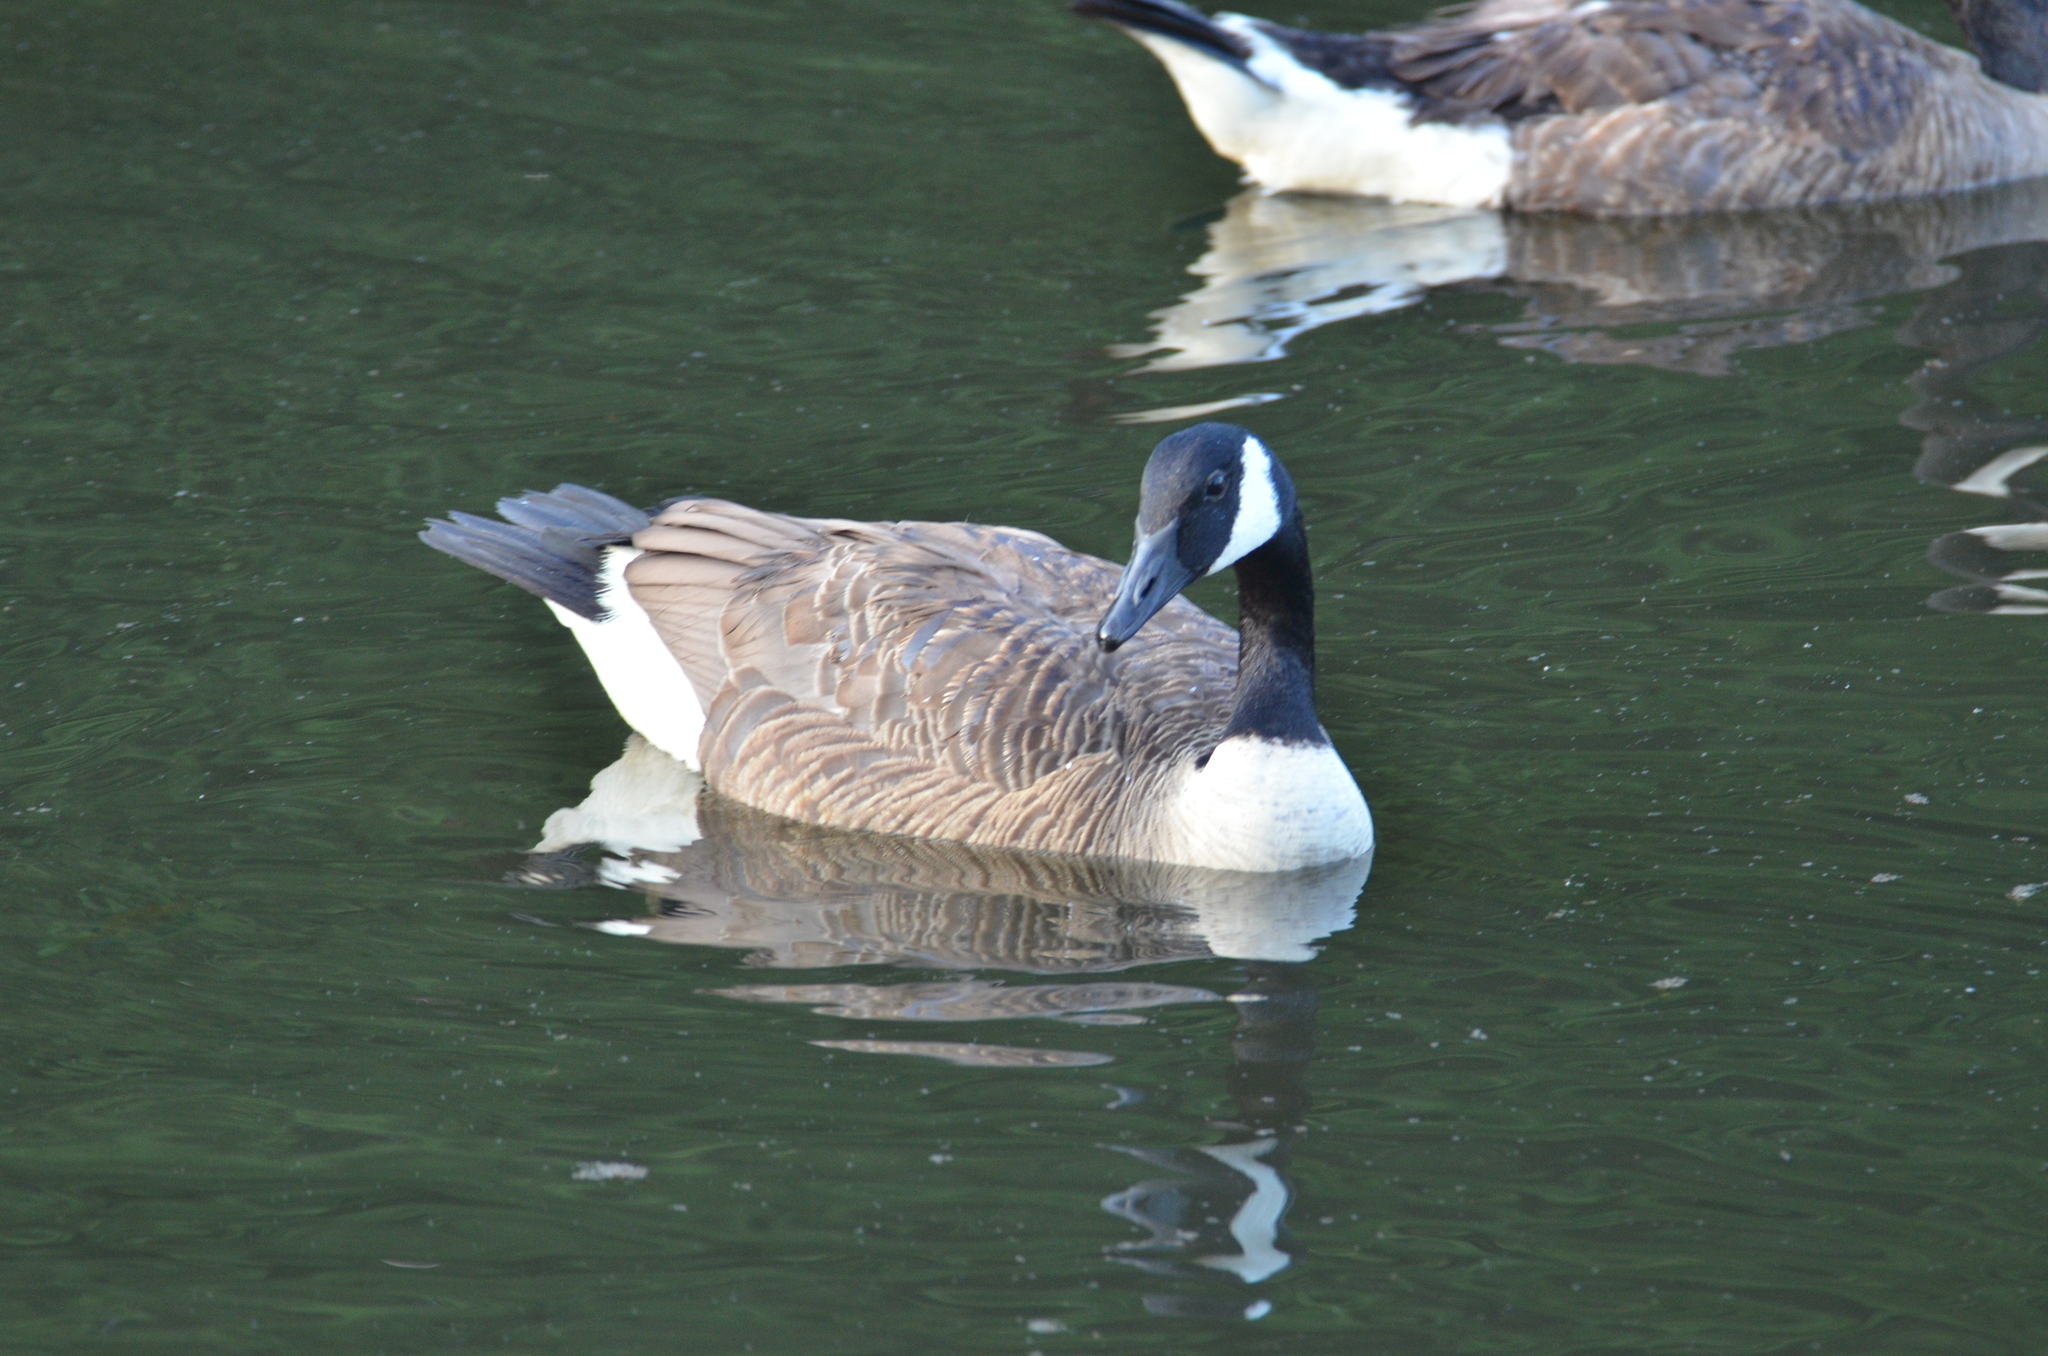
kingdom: Animalia
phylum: Chordata
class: Aves
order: Anseriformes
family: Anatidae
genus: Branta
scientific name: Branta canadensis
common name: Canada goose
